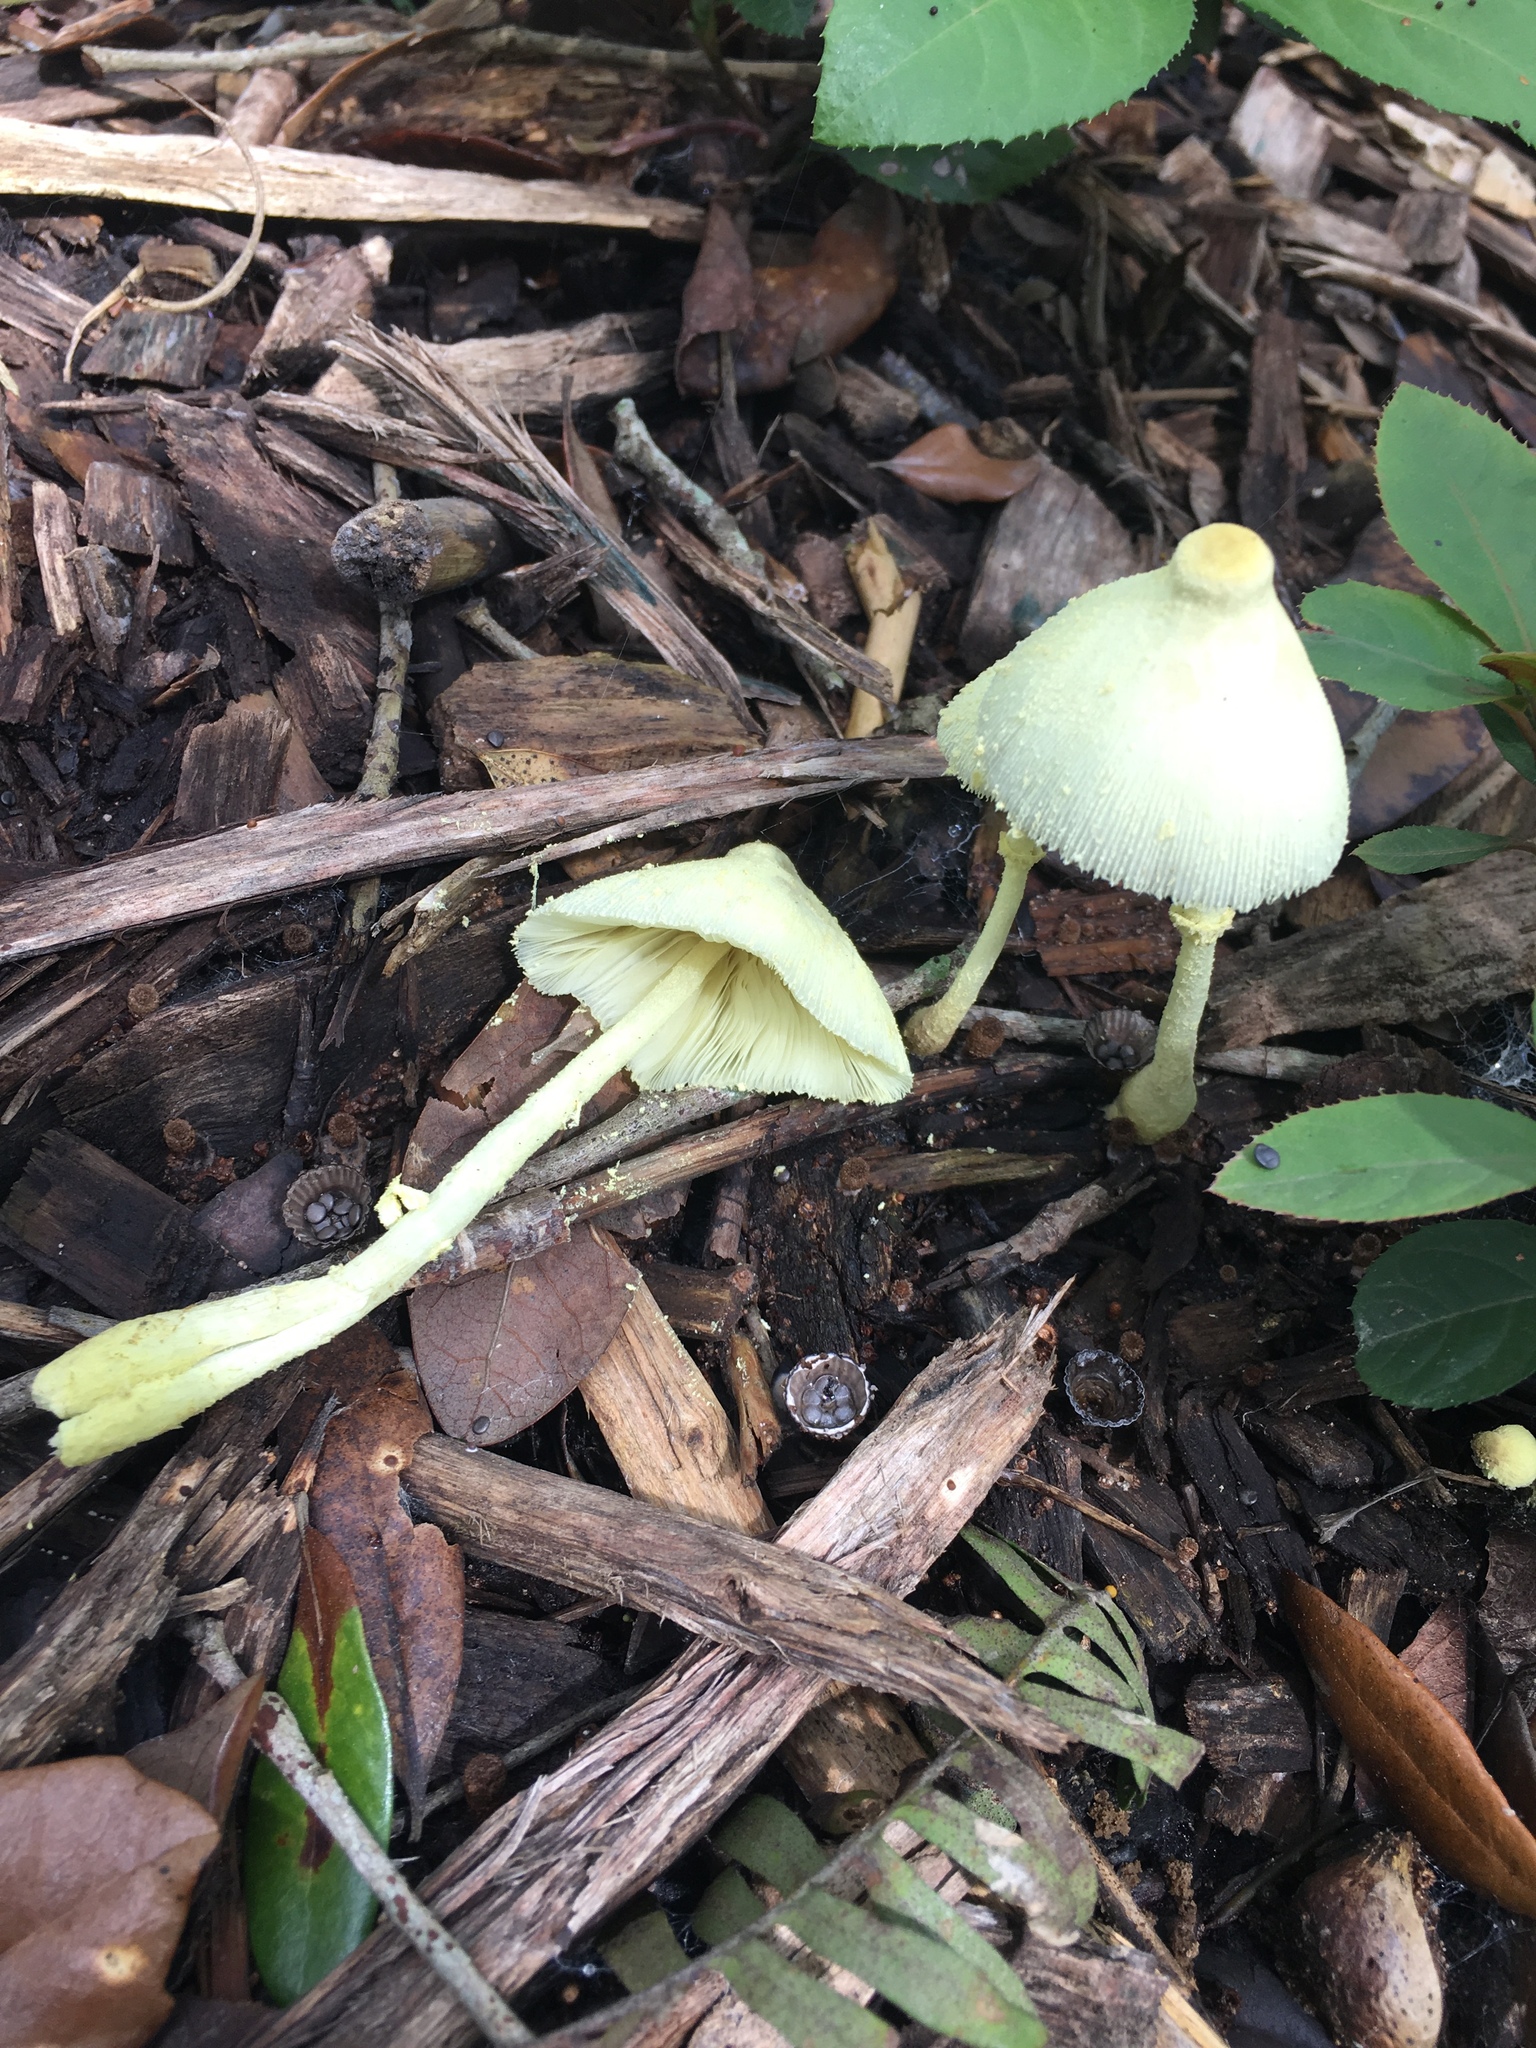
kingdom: Fungi
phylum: Basidiomycota
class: Agaricomycetes
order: Agaricales
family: Agaricaceae
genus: Leucocoprinus
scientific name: Leucocoprinus birnbaumii
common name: Plantpot dapperling
